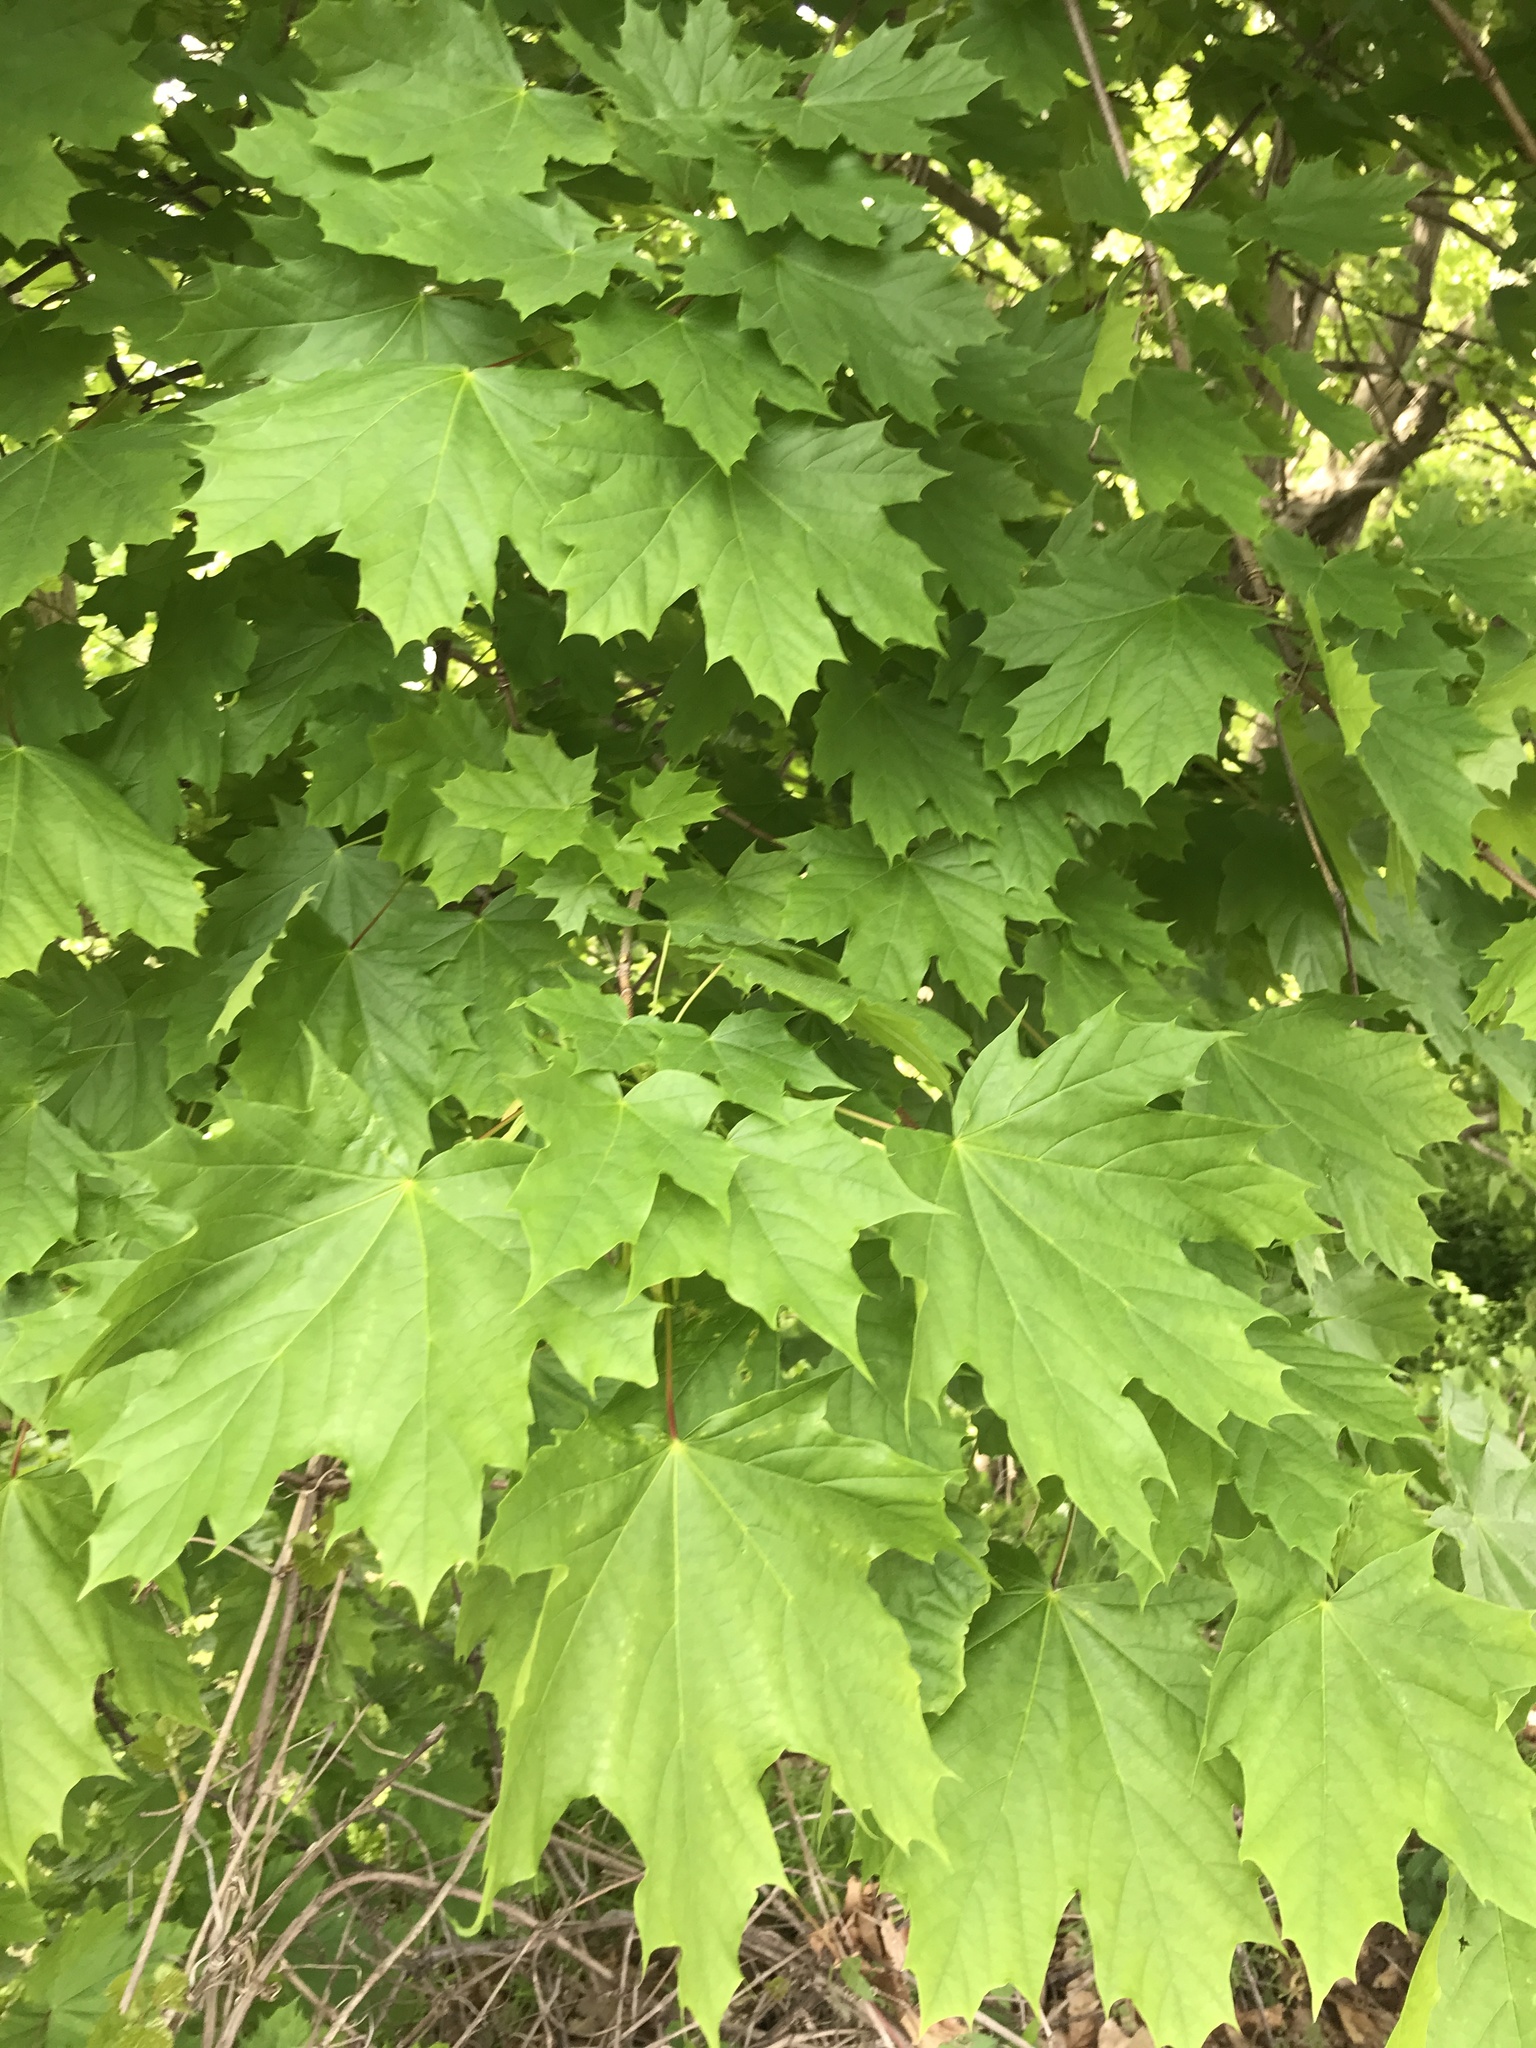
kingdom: Plantae
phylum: Tracheophyta
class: Magnoliopsida
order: Sapindales
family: Sapindaceae
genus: Acer
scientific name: Acer platanoides
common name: Norway maple
